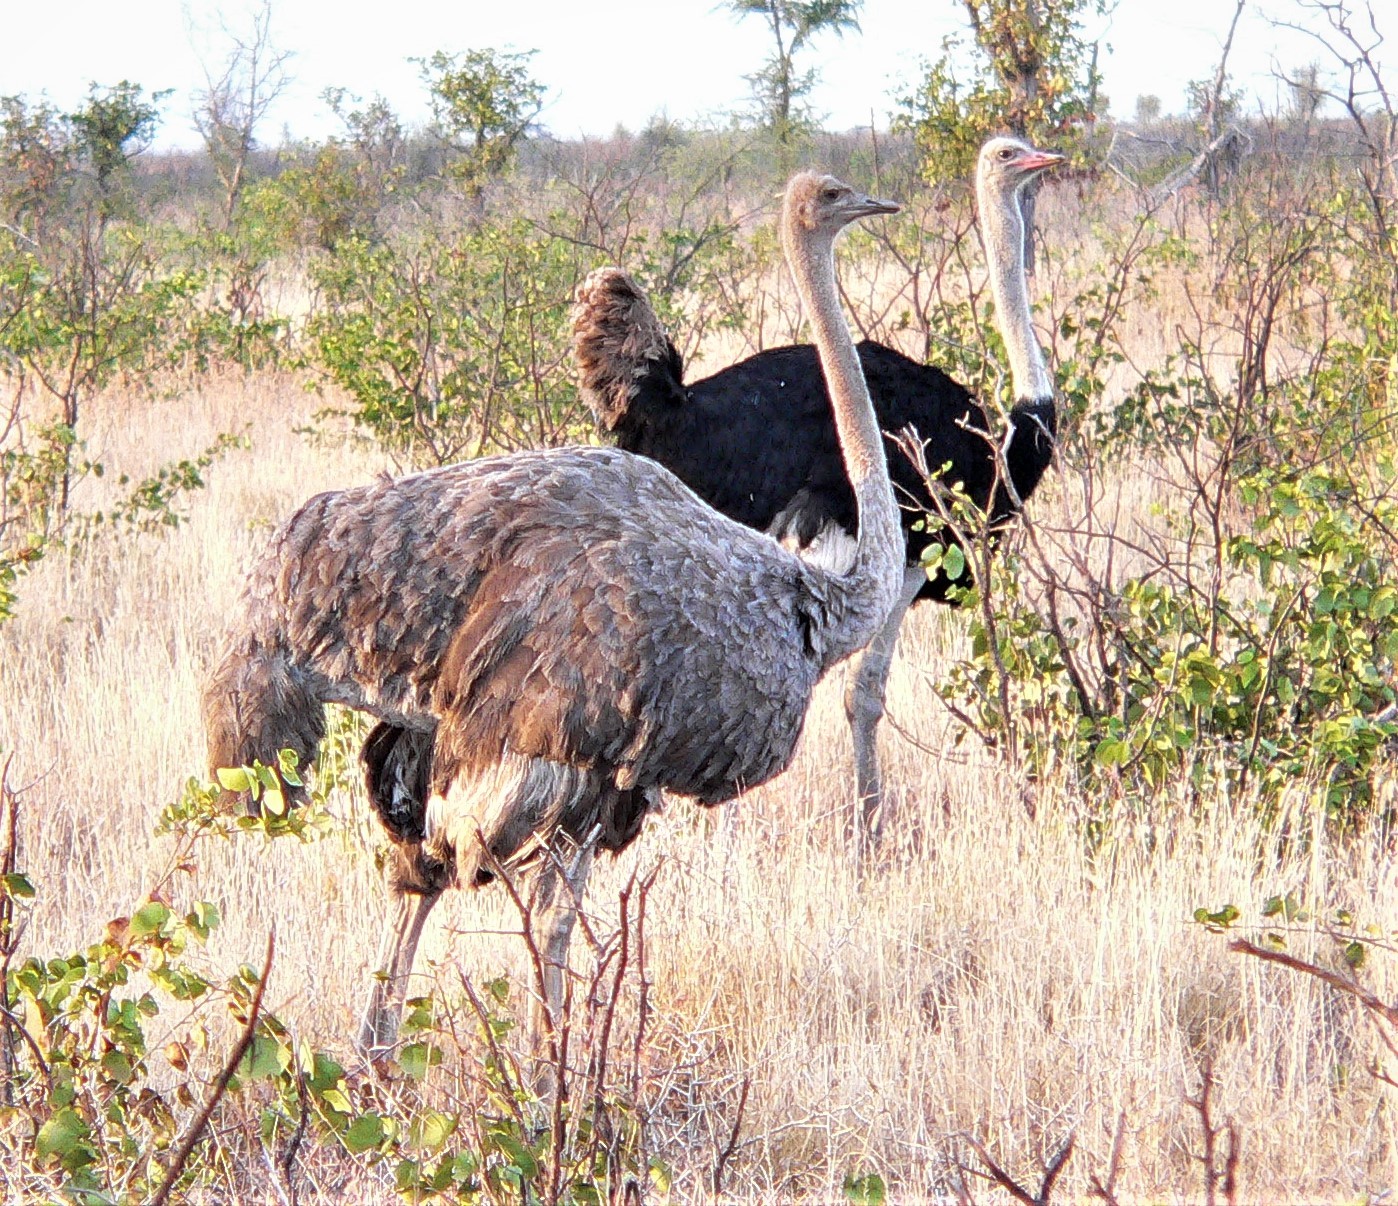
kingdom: Animalia
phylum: Chordata
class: Aves
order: Struthioniformes
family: Struthionidae
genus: Struthio
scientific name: Struthio camelus
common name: Common ostrich
